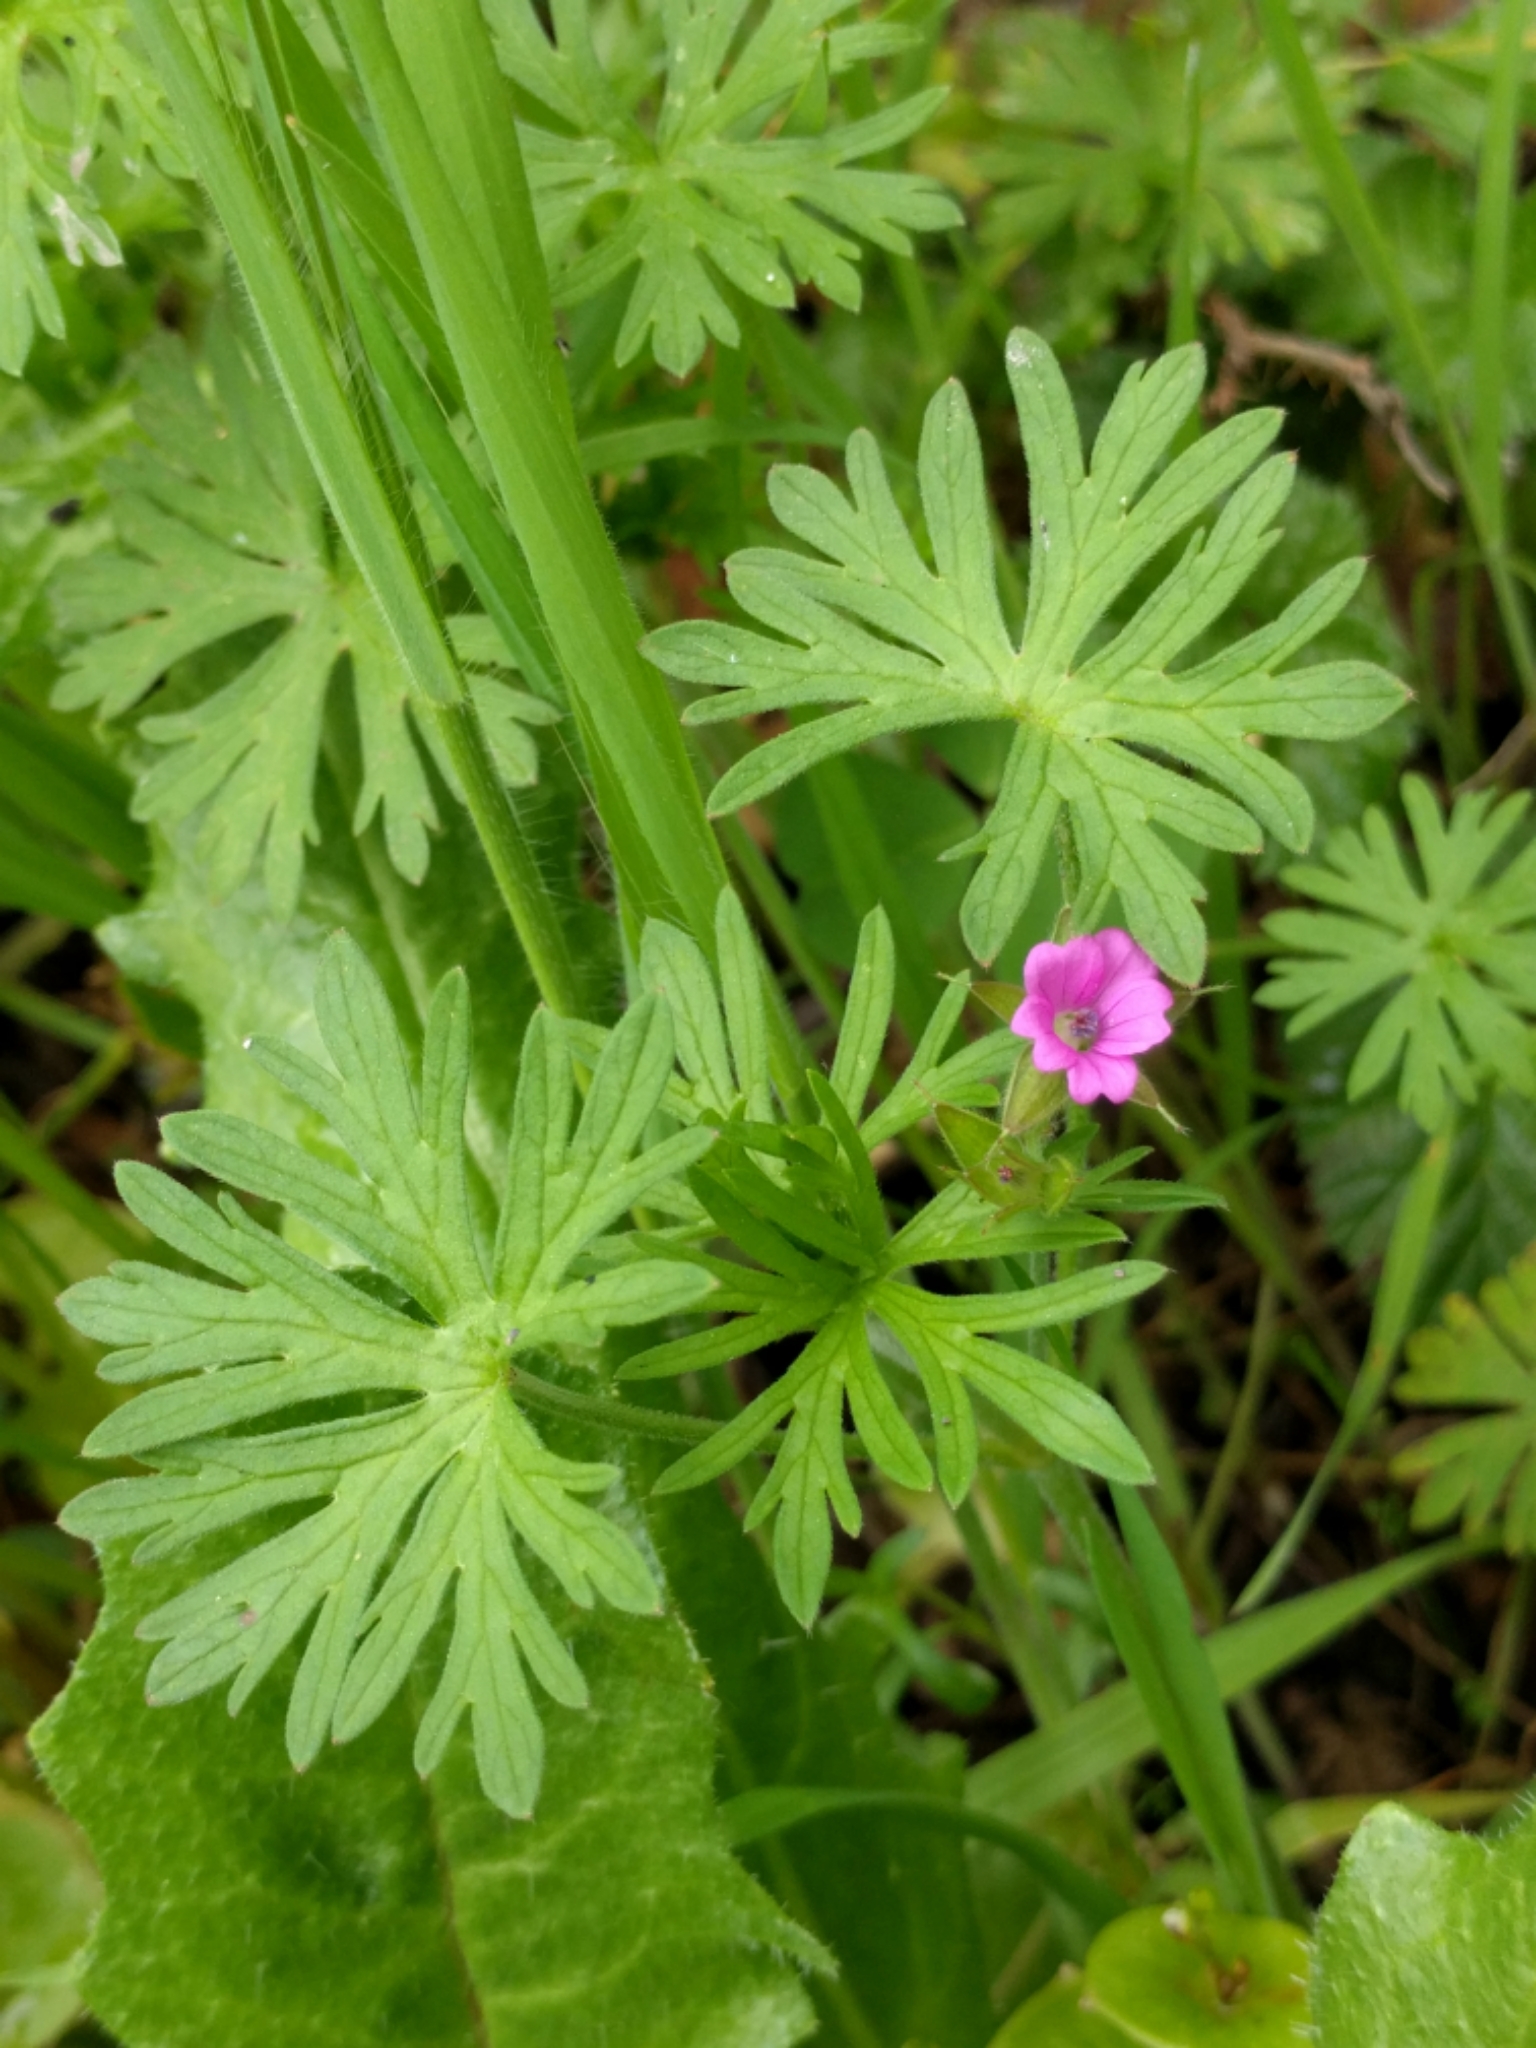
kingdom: Plantae
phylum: Tracheophyta
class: Magnoliopsida
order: Geraniales
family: Geraniaceae
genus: Geranium
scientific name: Geranium dissectum
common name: Cut-leaved crane's-bill
